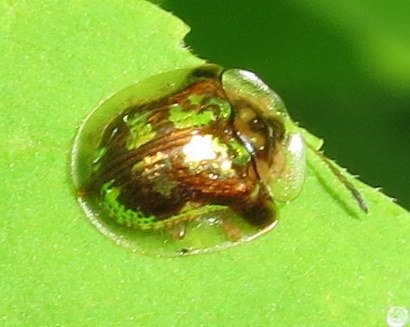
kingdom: Animalia
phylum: Arthropoda
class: Insecta
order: Coleoptera
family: Chrysomelidae
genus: Deloyala
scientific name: Deloyala guttata
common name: Mottled tortoise beetle
